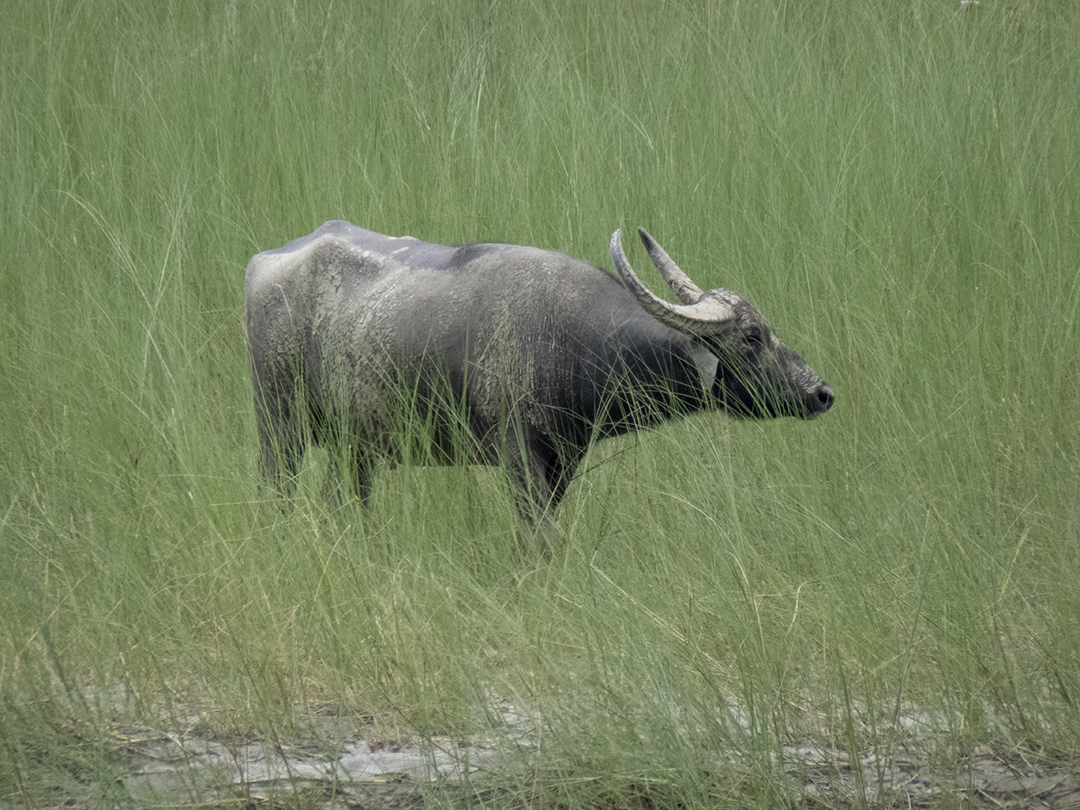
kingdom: Animalia
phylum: Chordata
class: Mammalia
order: Artiodactyla
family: Bovidae
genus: Bubalus
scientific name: Bubalus bubalis
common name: Water buffalo
